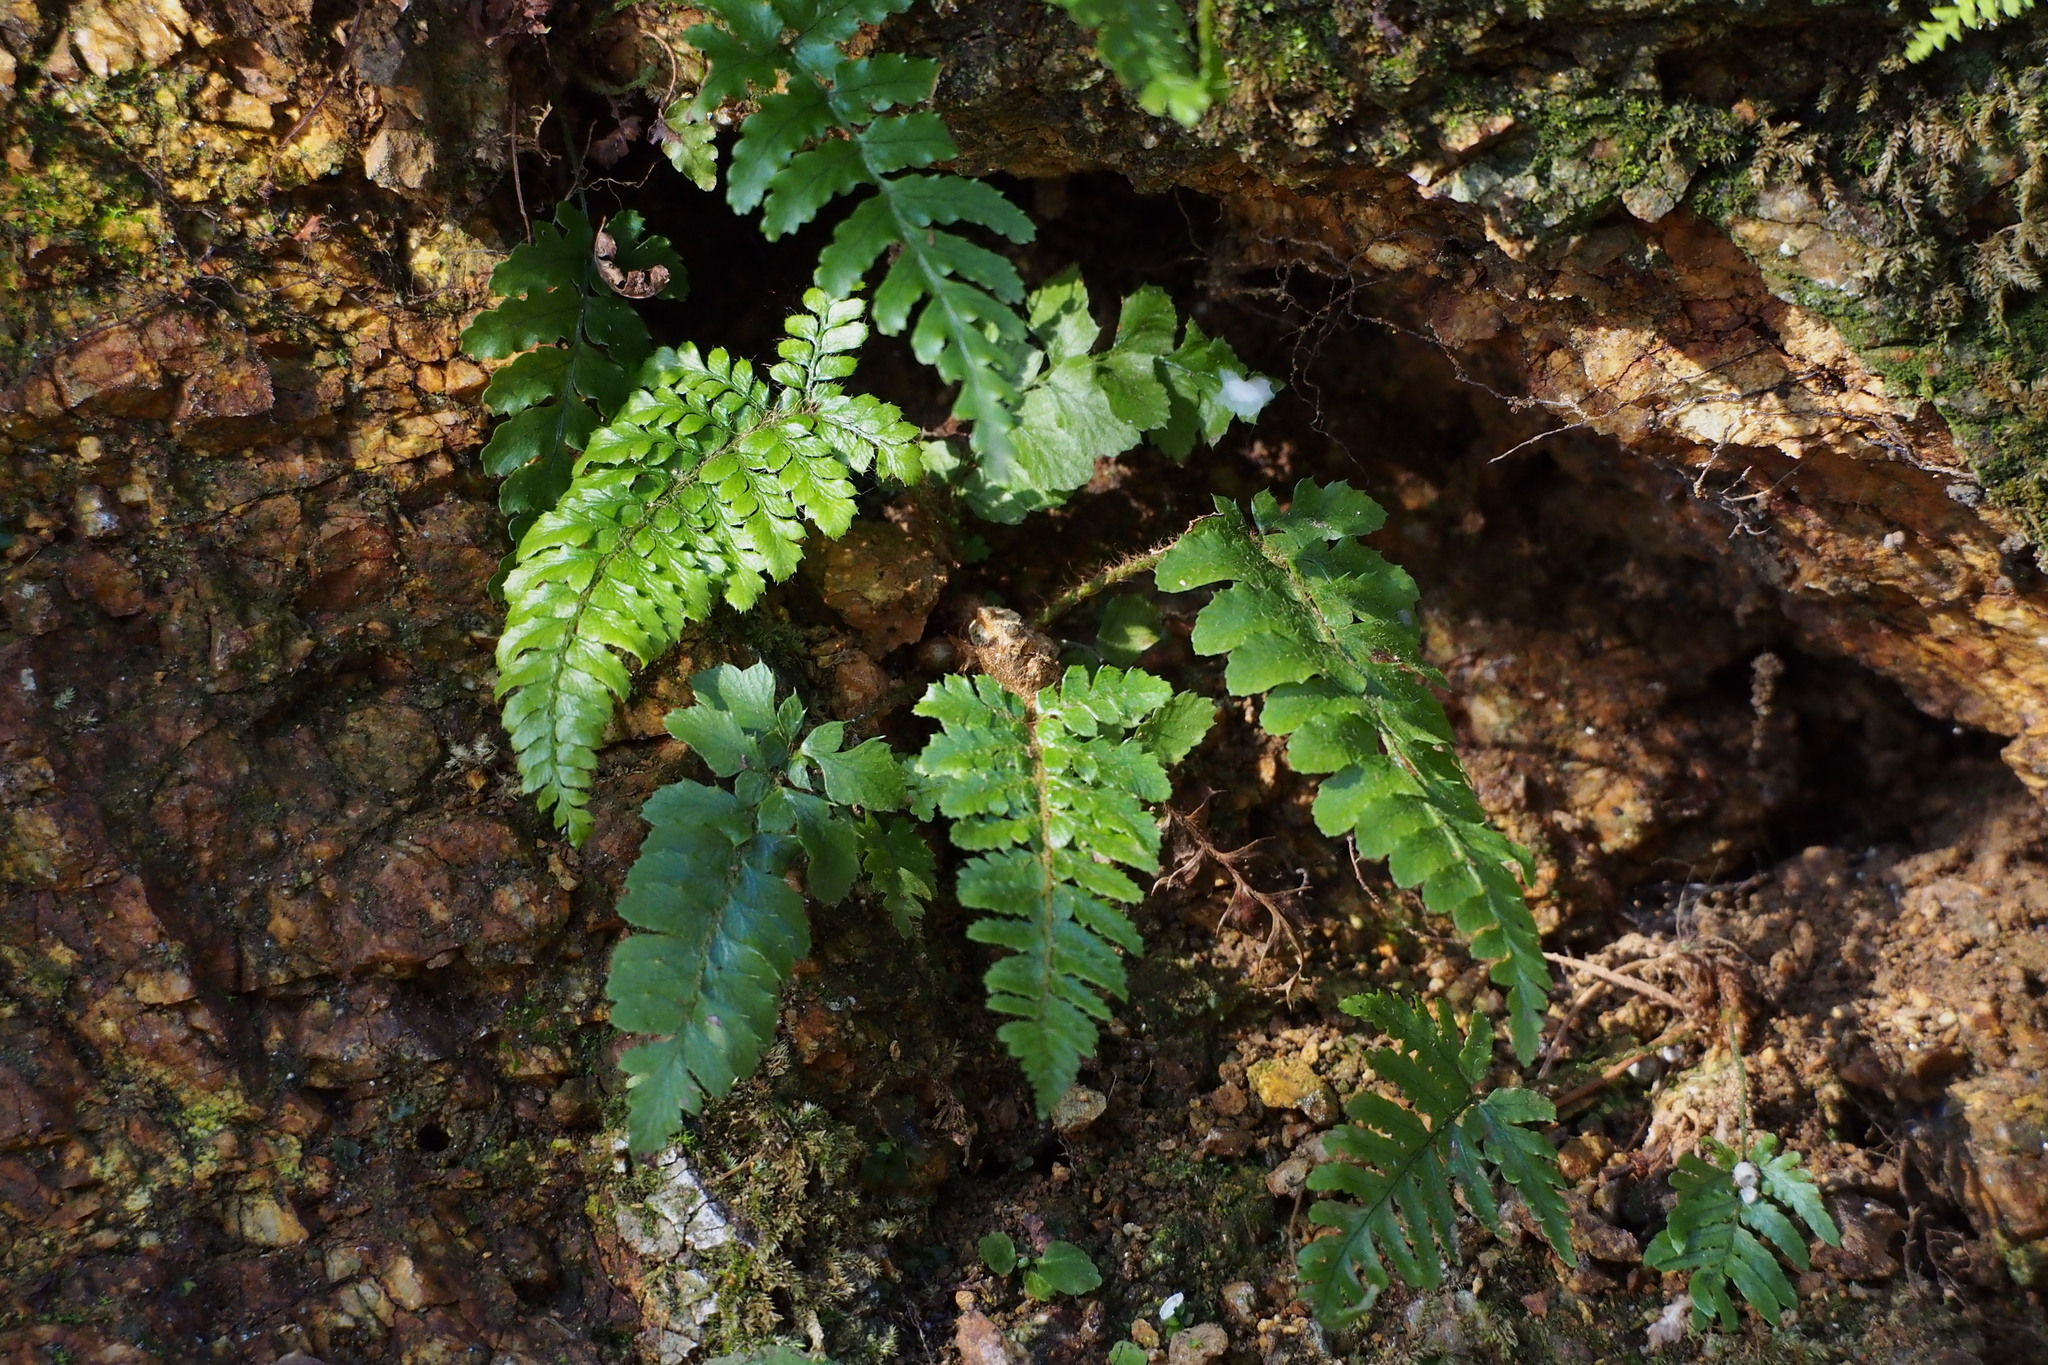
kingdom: Plantae
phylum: Tracheophyta
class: Polypodiopsida
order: Polypodiales
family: Dryopteridaceae
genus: Polystichum
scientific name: Polystichum luctuosum
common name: Korean rockfern
